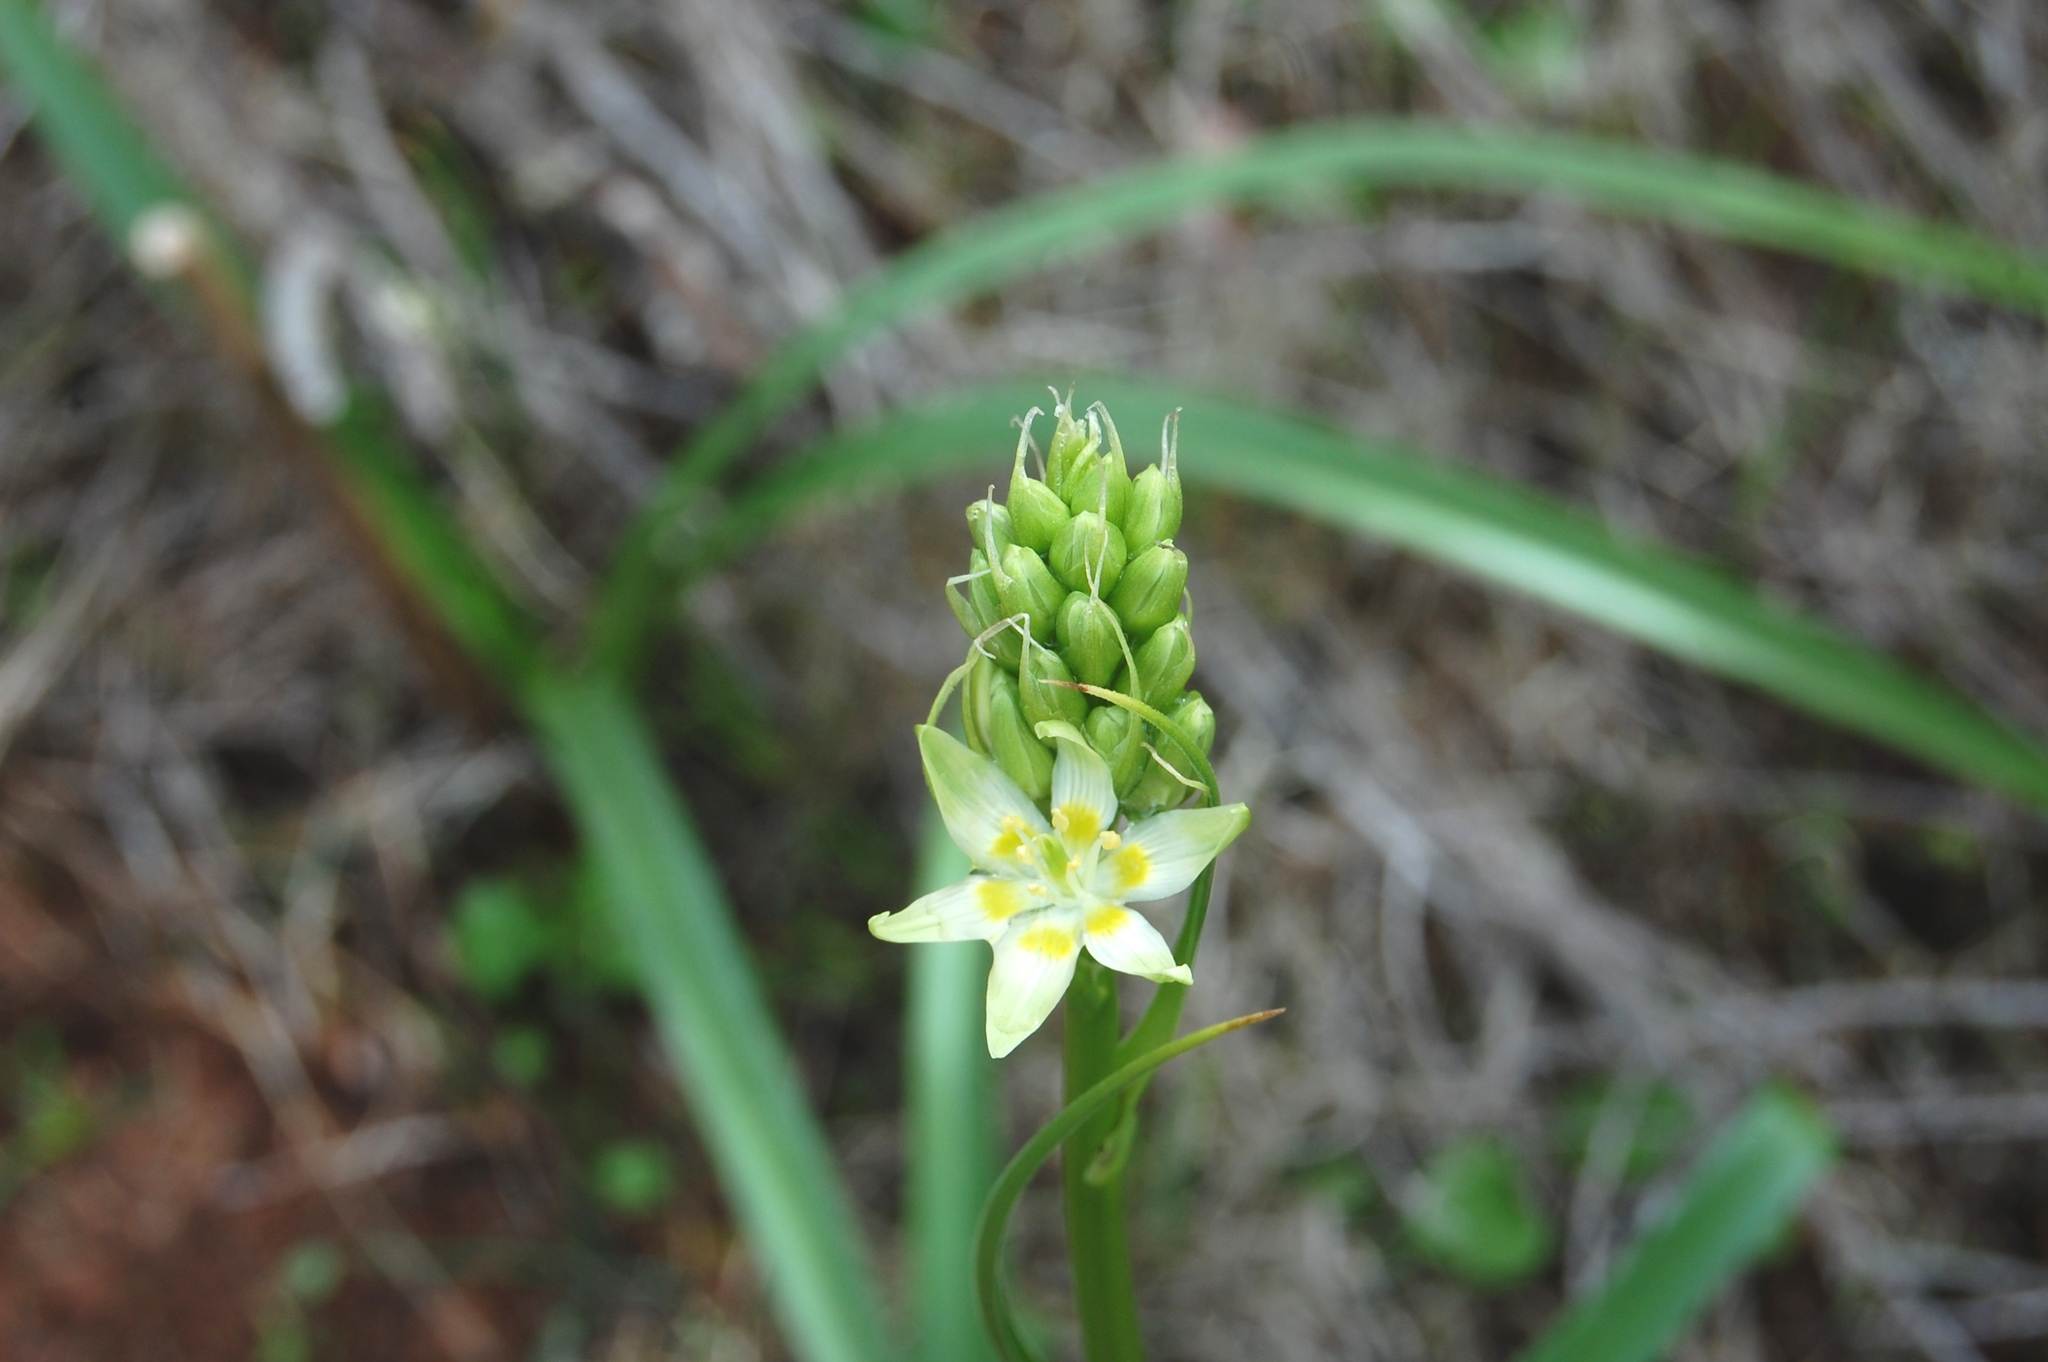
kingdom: Plantae
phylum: Tracheophyta
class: Liliopsida
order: Liliales
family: Melanthiaceae
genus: Toxicoscordion
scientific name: Toxicoscordion fremontii
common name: Fremont's death camas
